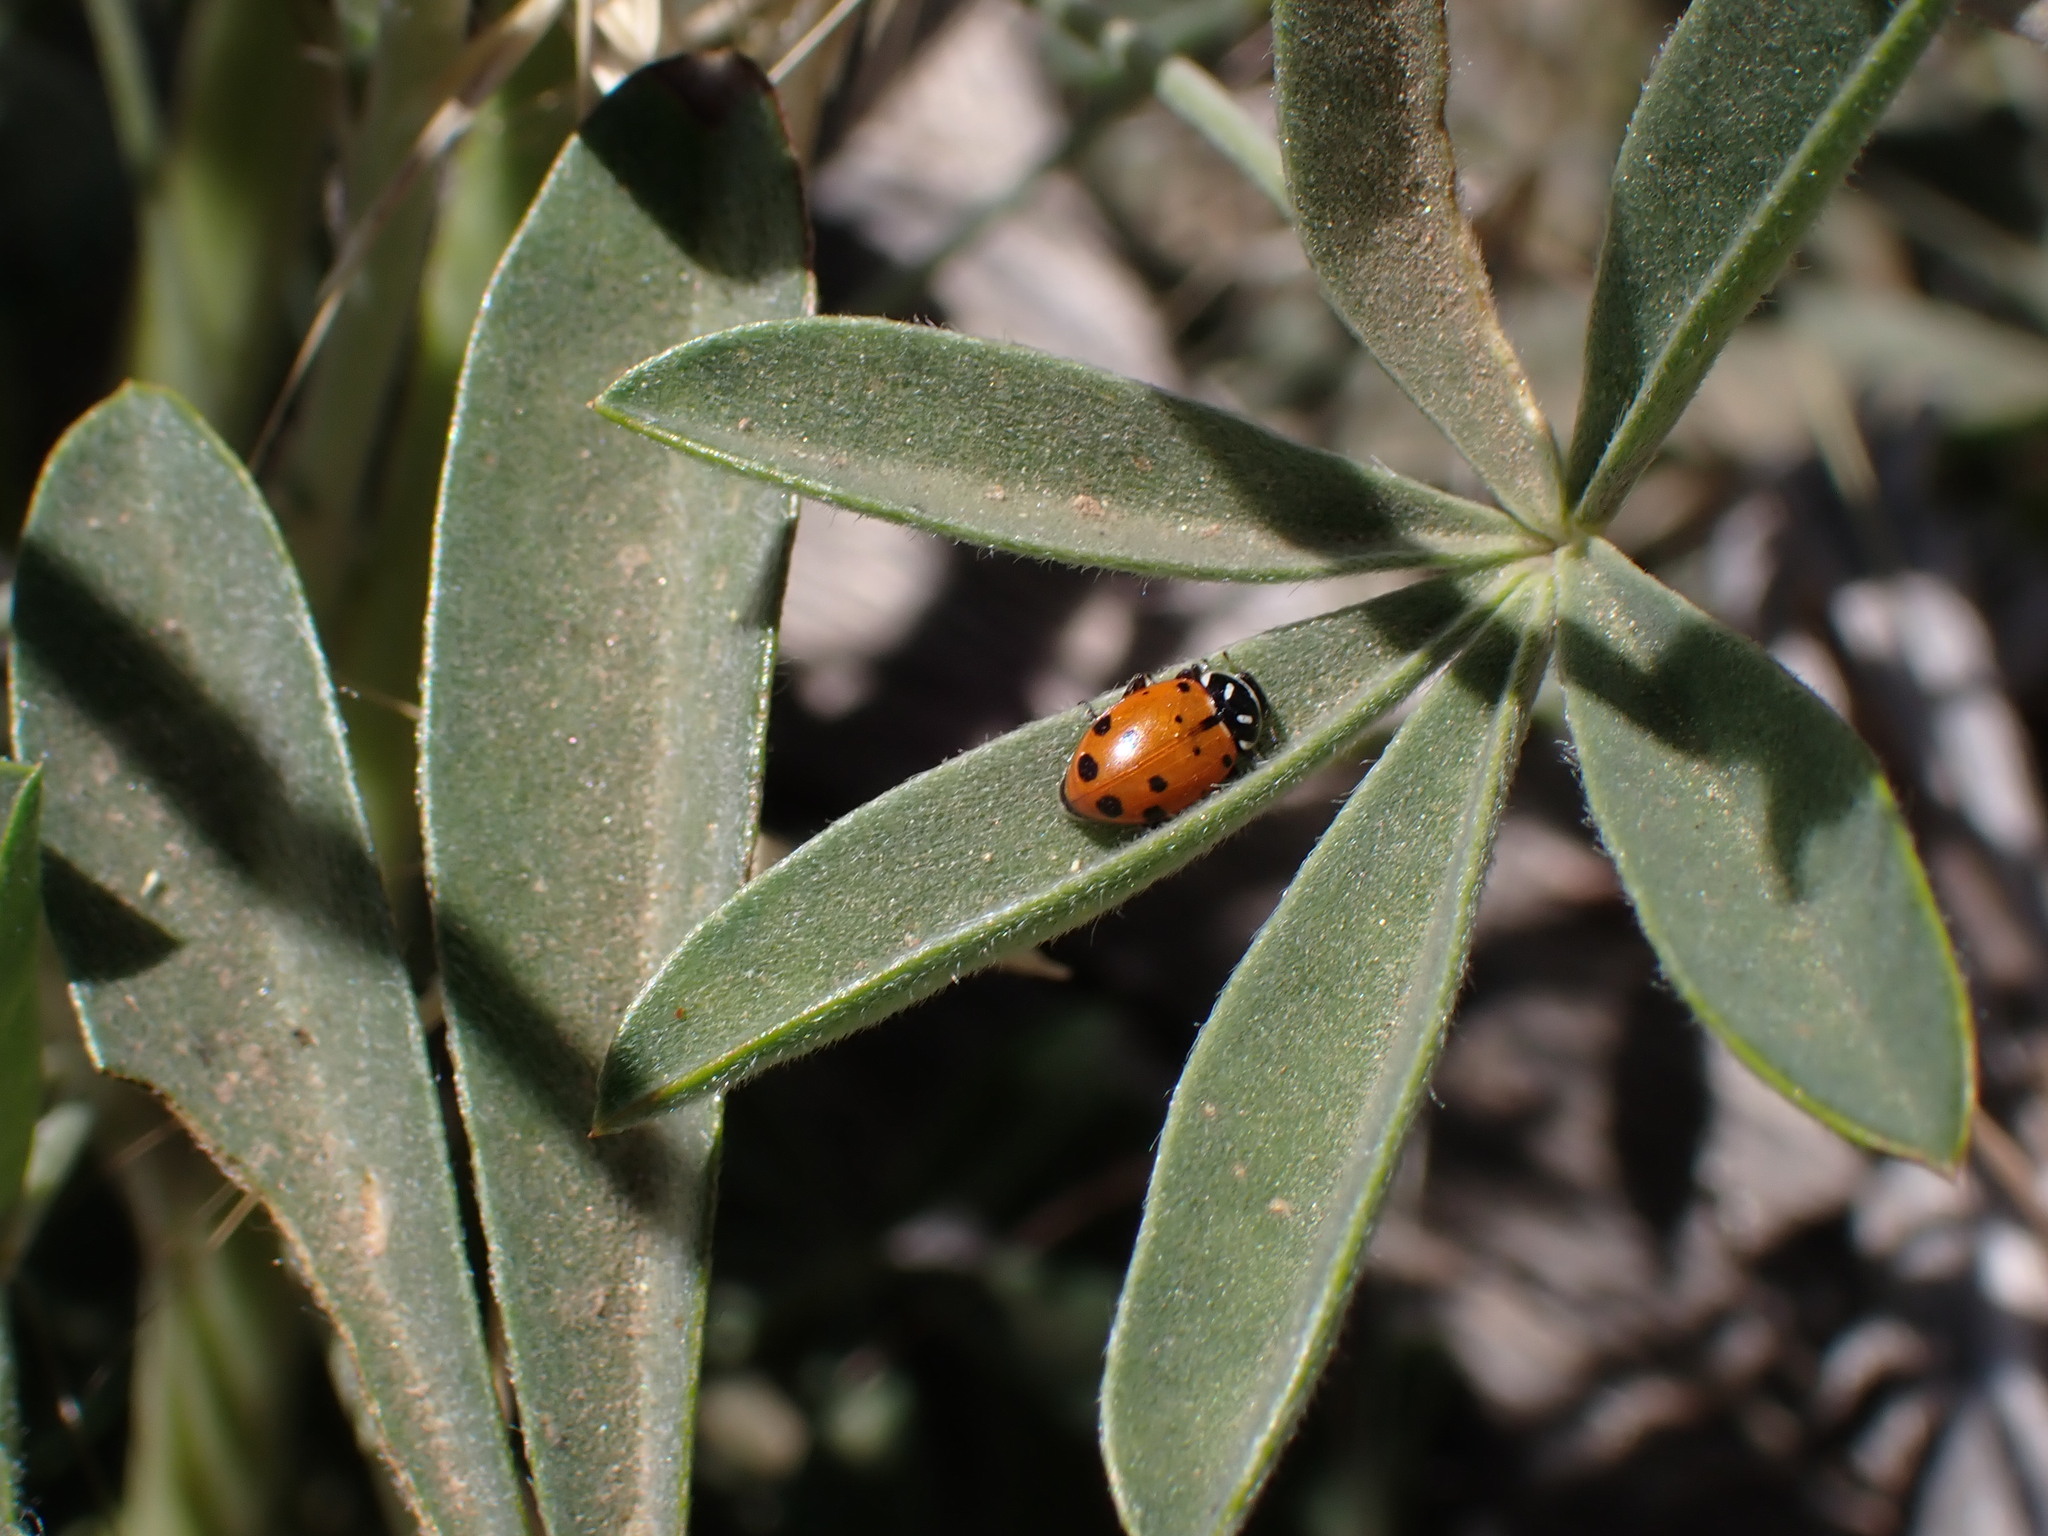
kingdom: Animalia
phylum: Arthropoda
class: Insecta
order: Coleoptera
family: Coccinellidae
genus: Hippodamia
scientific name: Hippodamia convergens
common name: Convergent lady beetle
